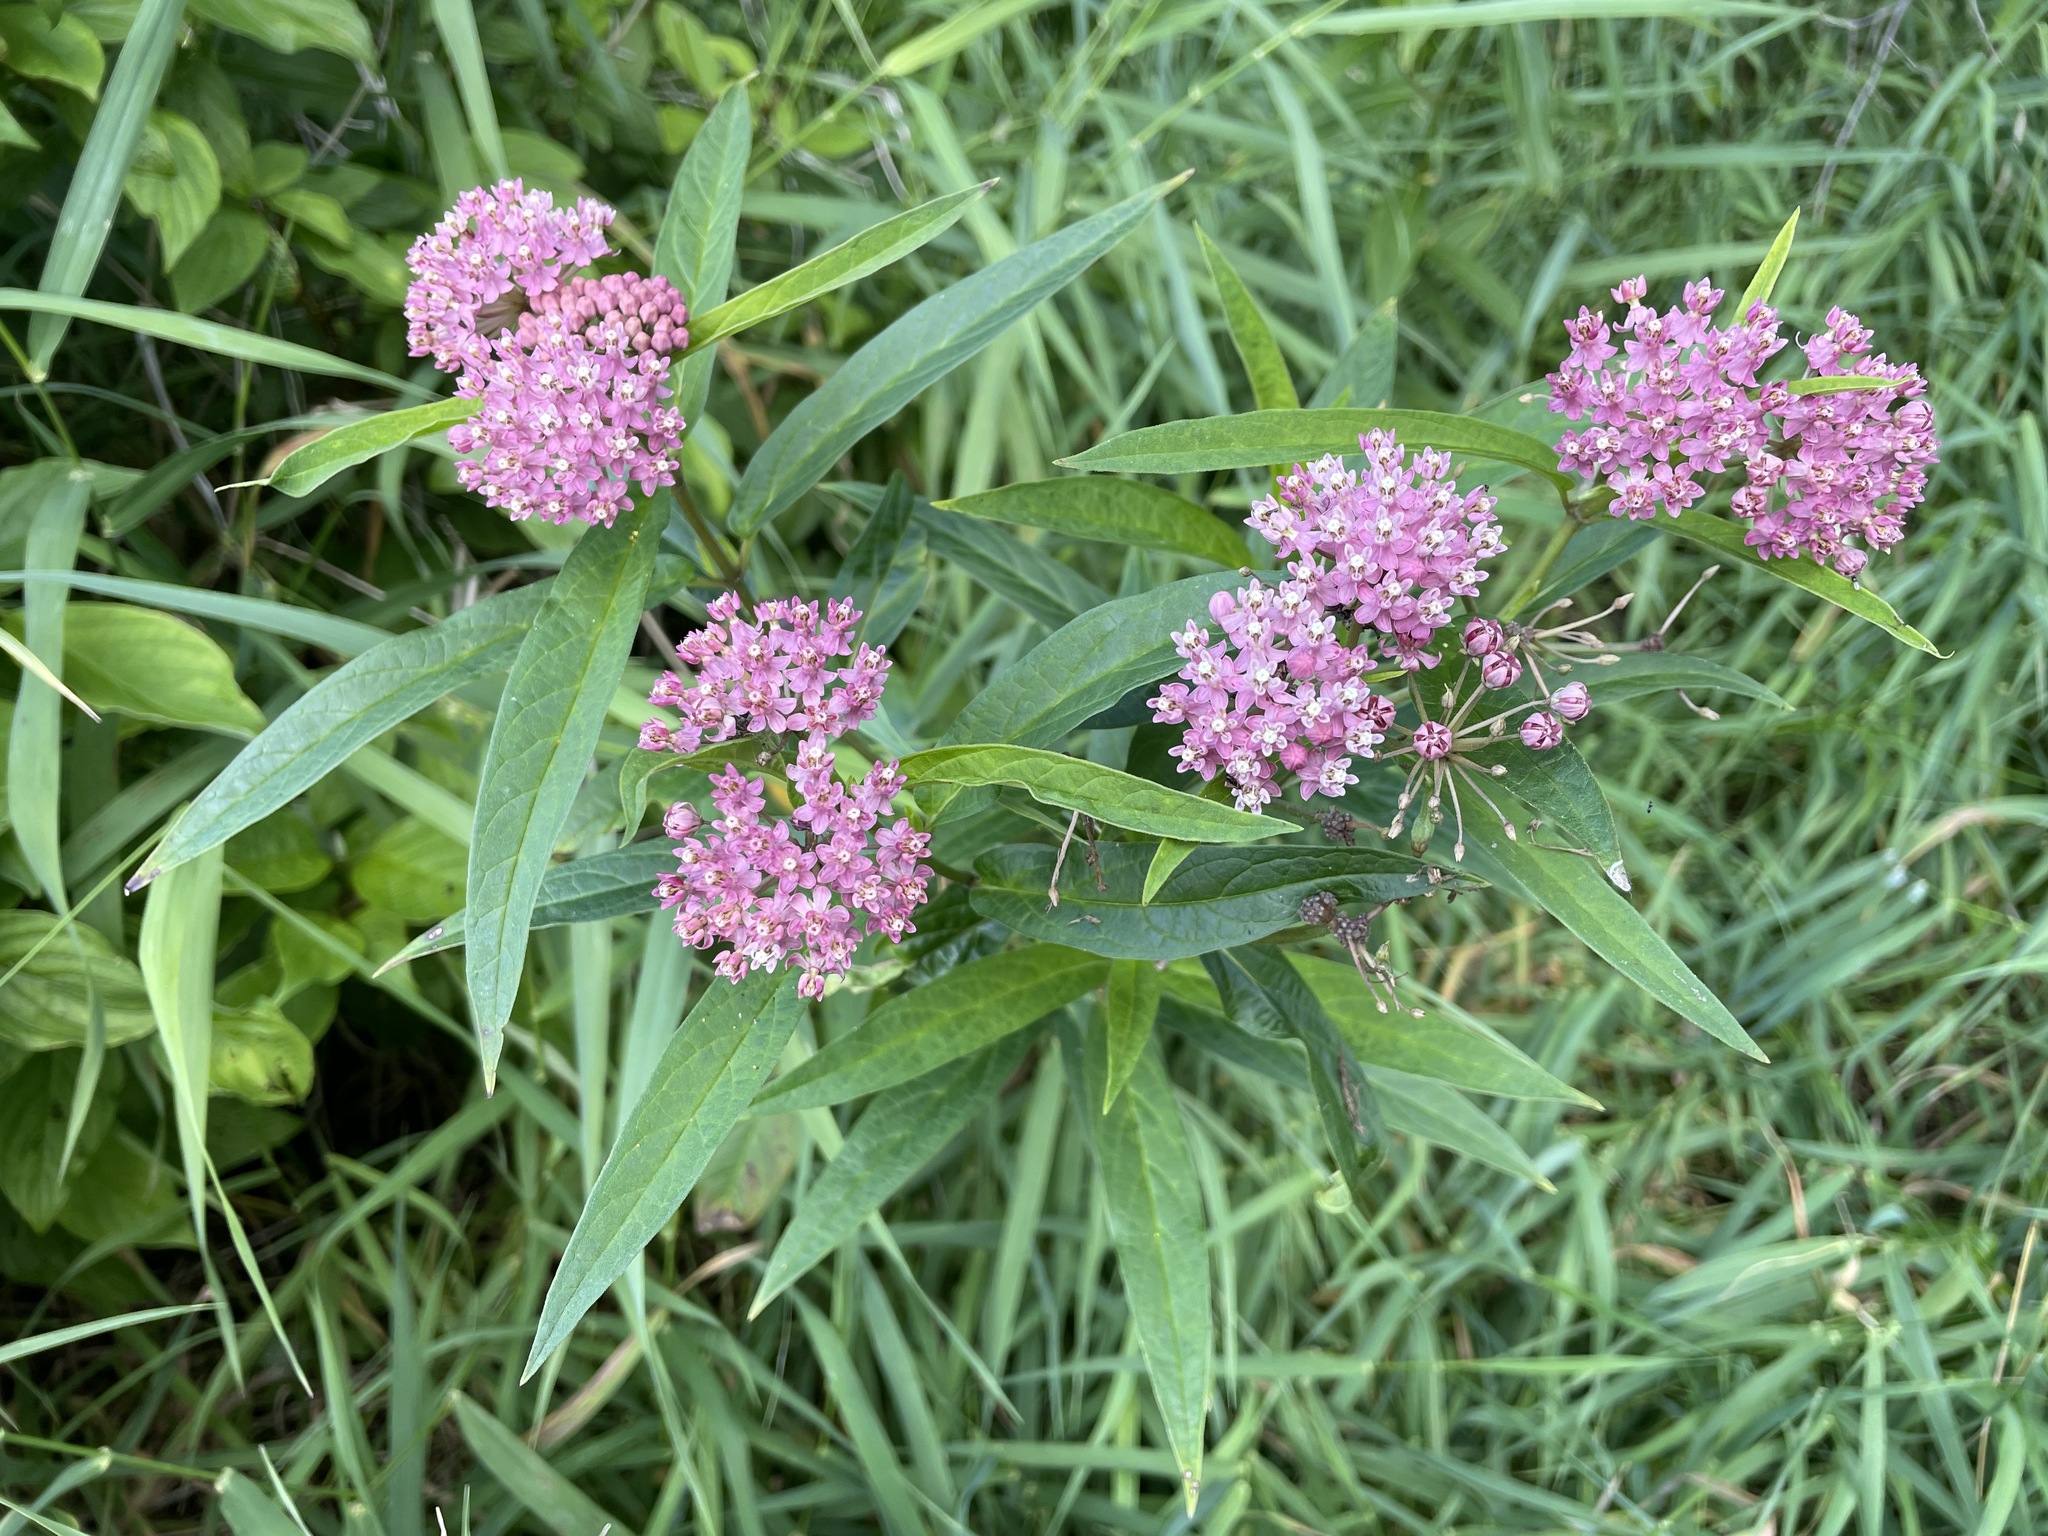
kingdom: Plantae
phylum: Tracheophyta
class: Magnoliopsida
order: Gentianales
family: Apocynaceae
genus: Asclepias
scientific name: Asclepias incarnata
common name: Swamp milkweed
